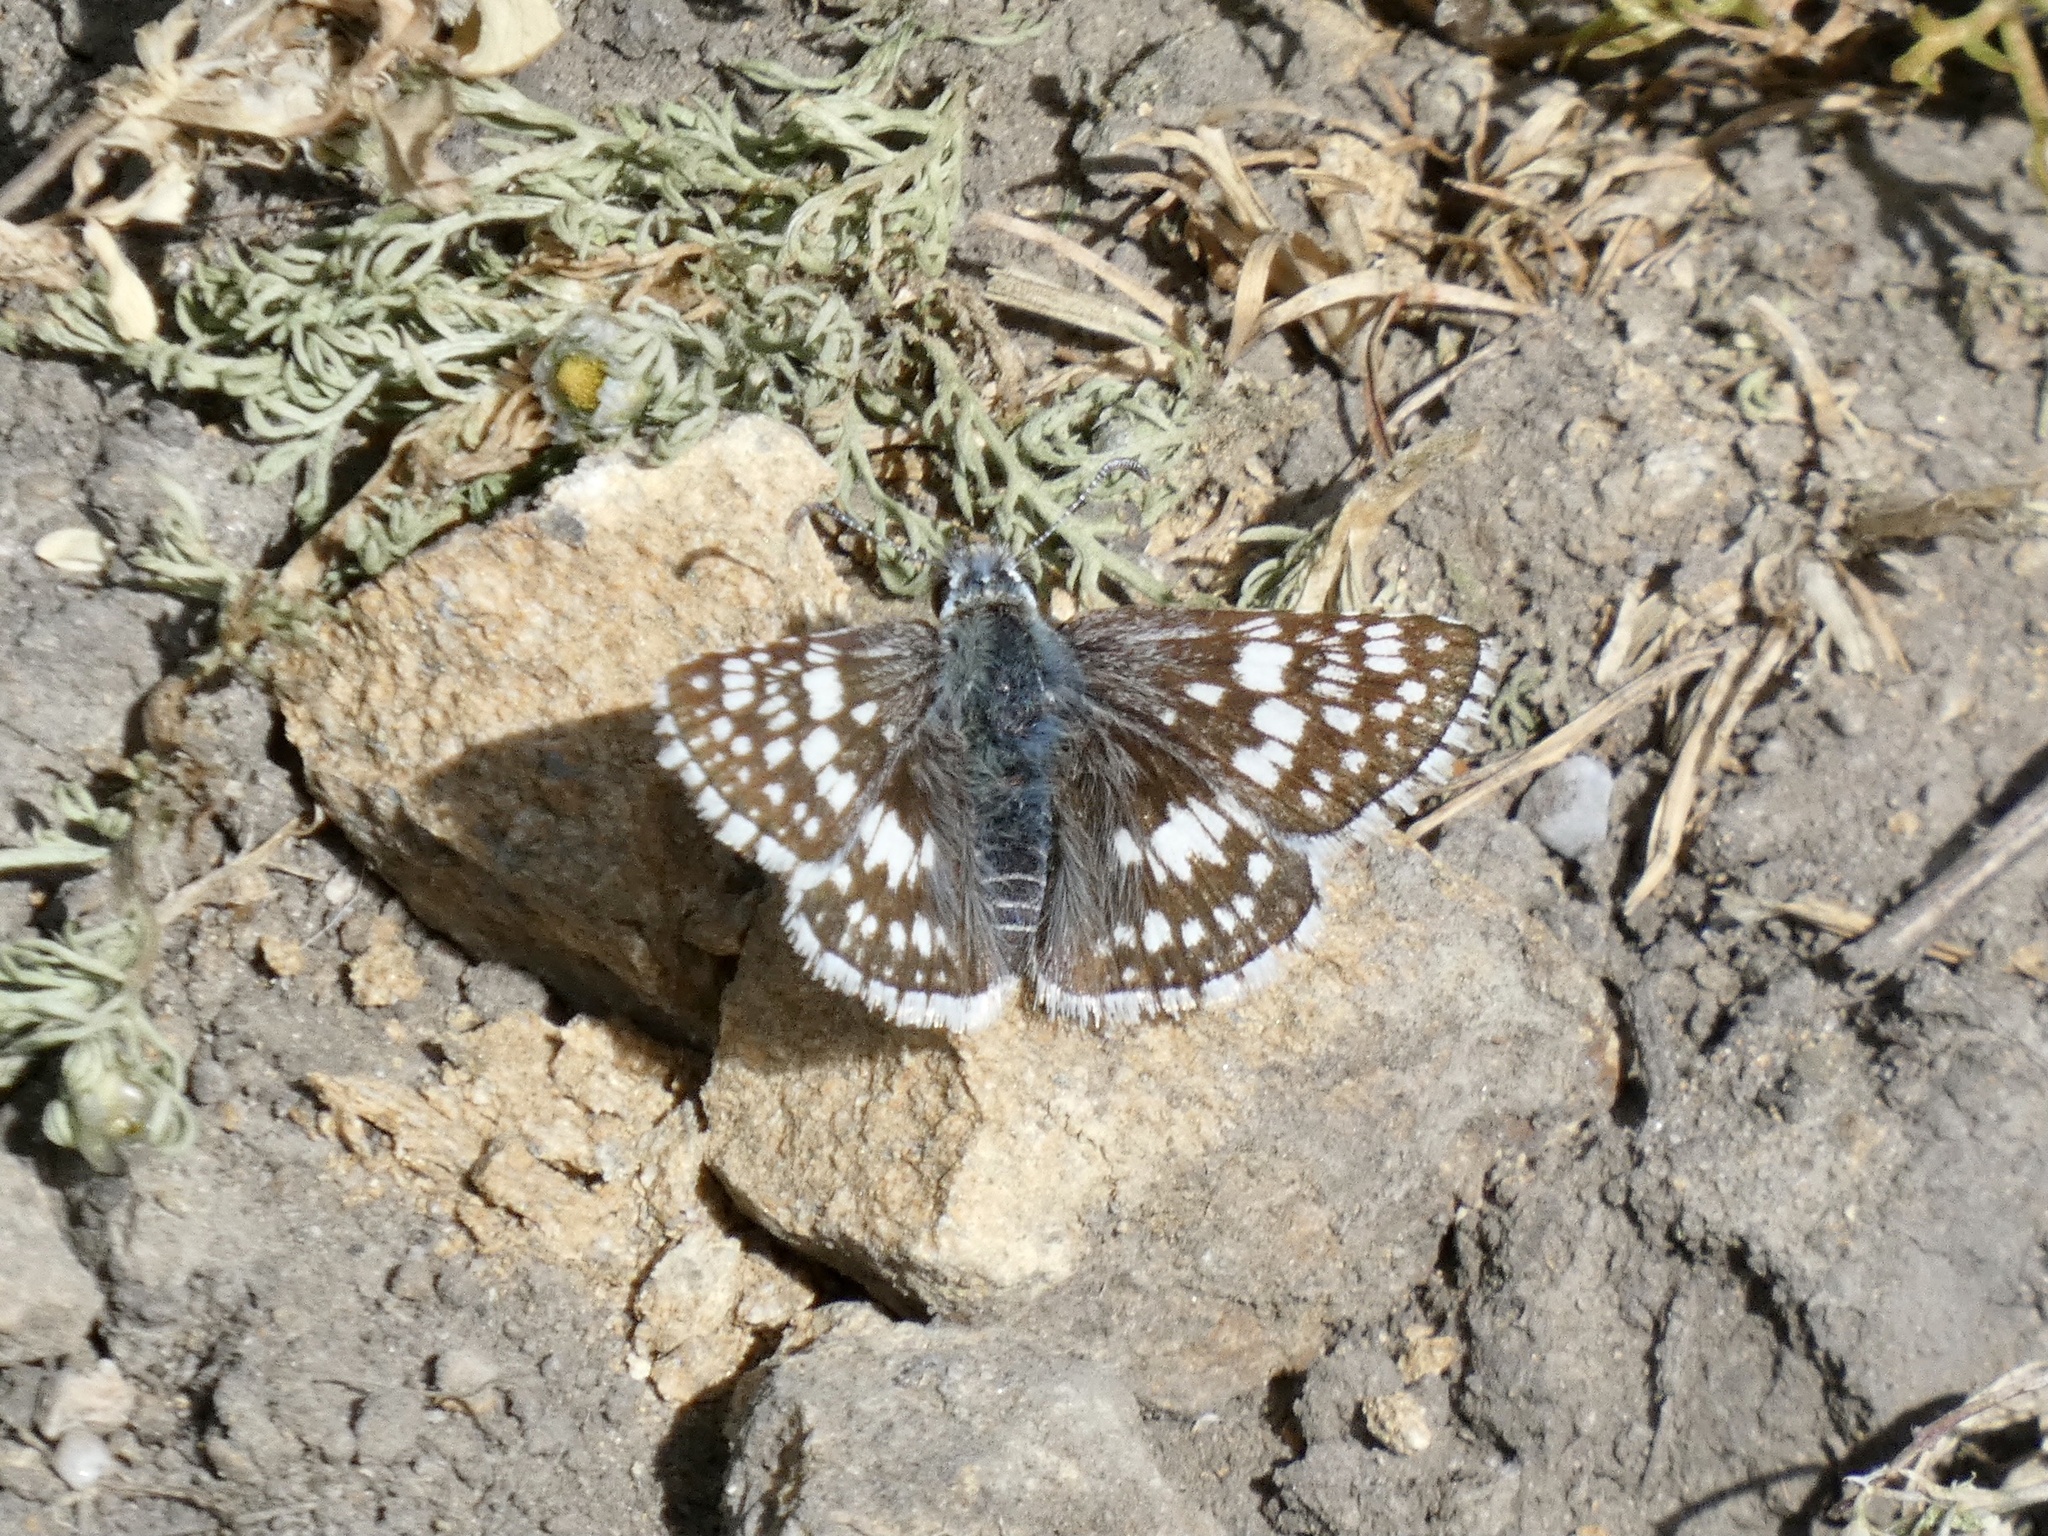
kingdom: Animalia
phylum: Arthropoda
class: Insecta
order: Lepidoptera
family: Hesperiidae
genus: Burnsius
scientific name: Burnsius communis
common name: Common checkered-skipper
